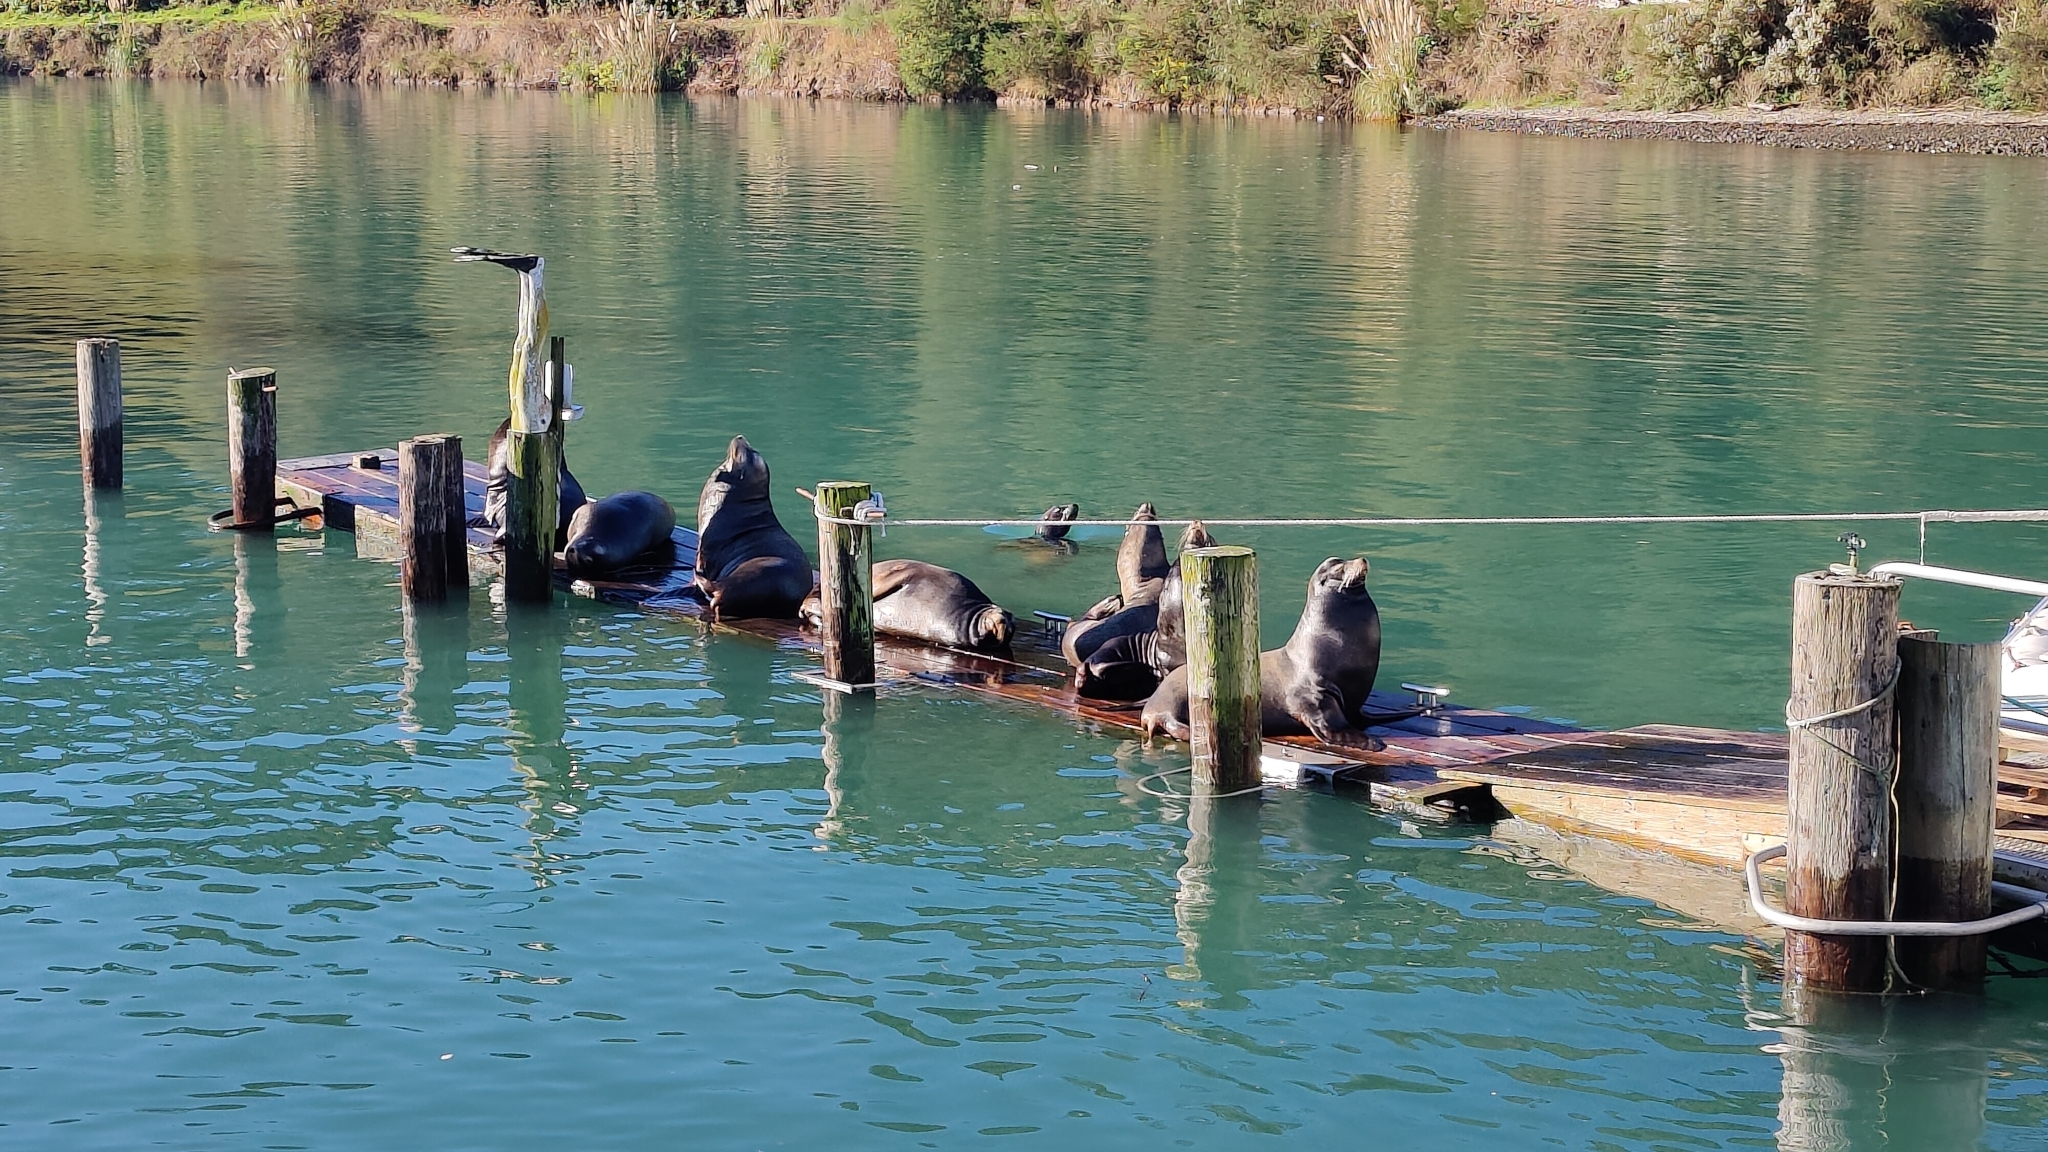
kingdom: Animalia
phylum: Chordata
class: Mammalia
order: Carnivora
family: Otariidae
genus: Zalophus
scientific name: Zalophus californianus
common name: California sea lion
